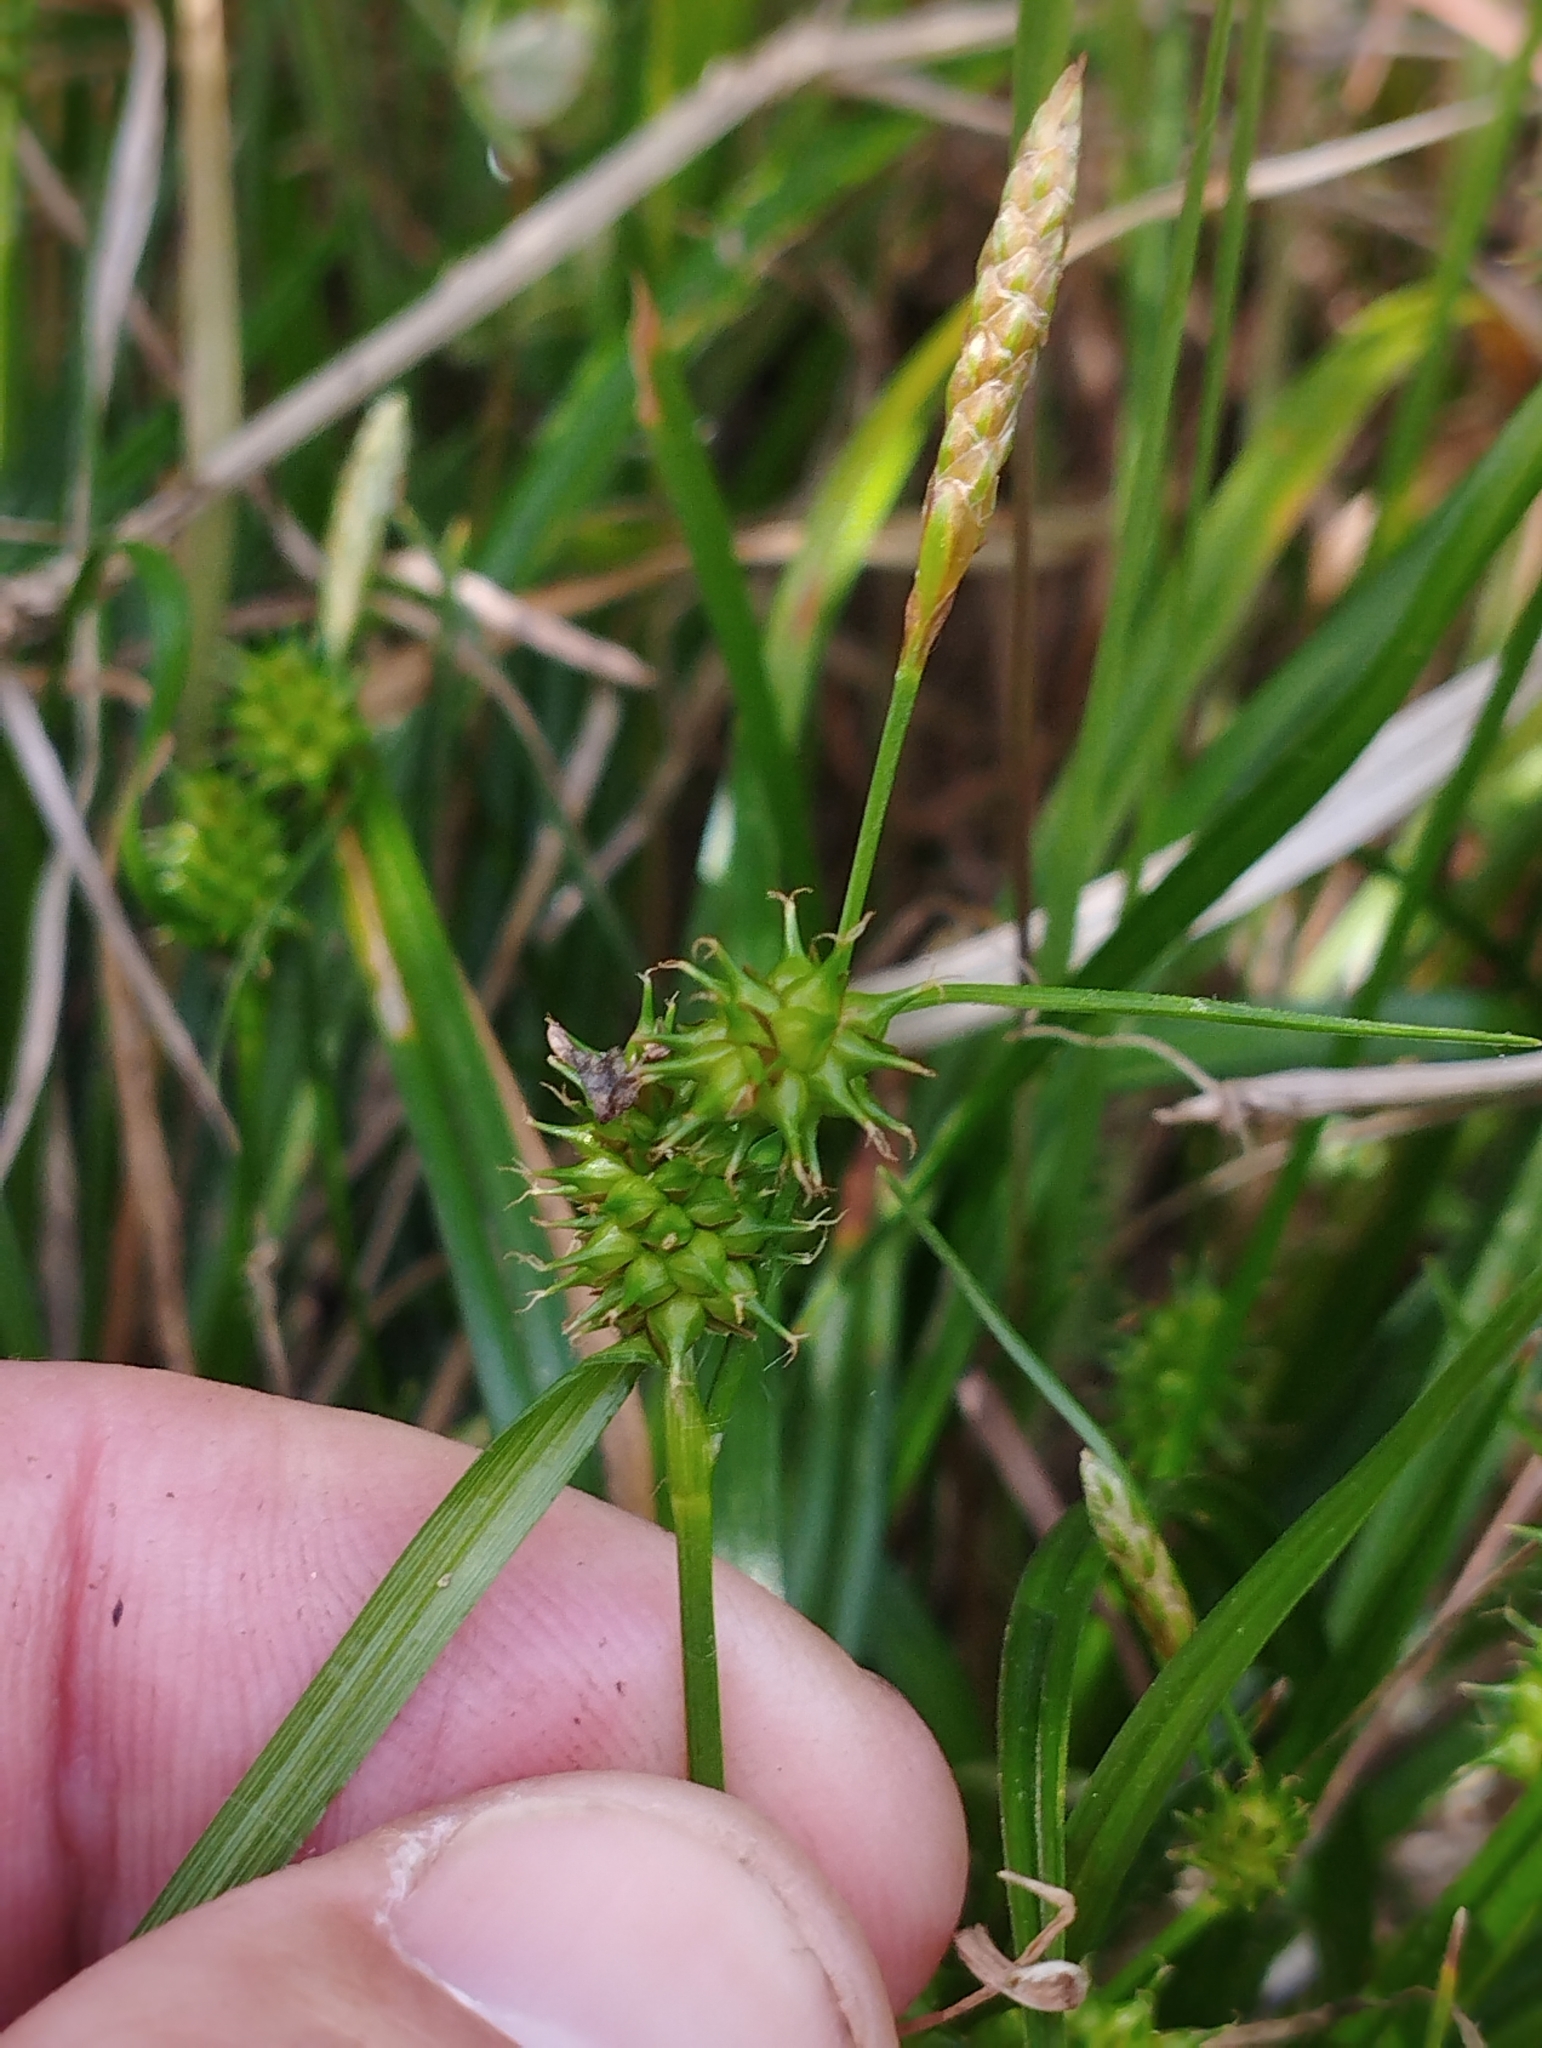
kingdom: Plantae
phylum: Tracheophyta
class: Liliopsida
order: Poales
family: Cyperaceae
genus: Carex
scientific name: Carex demissa
